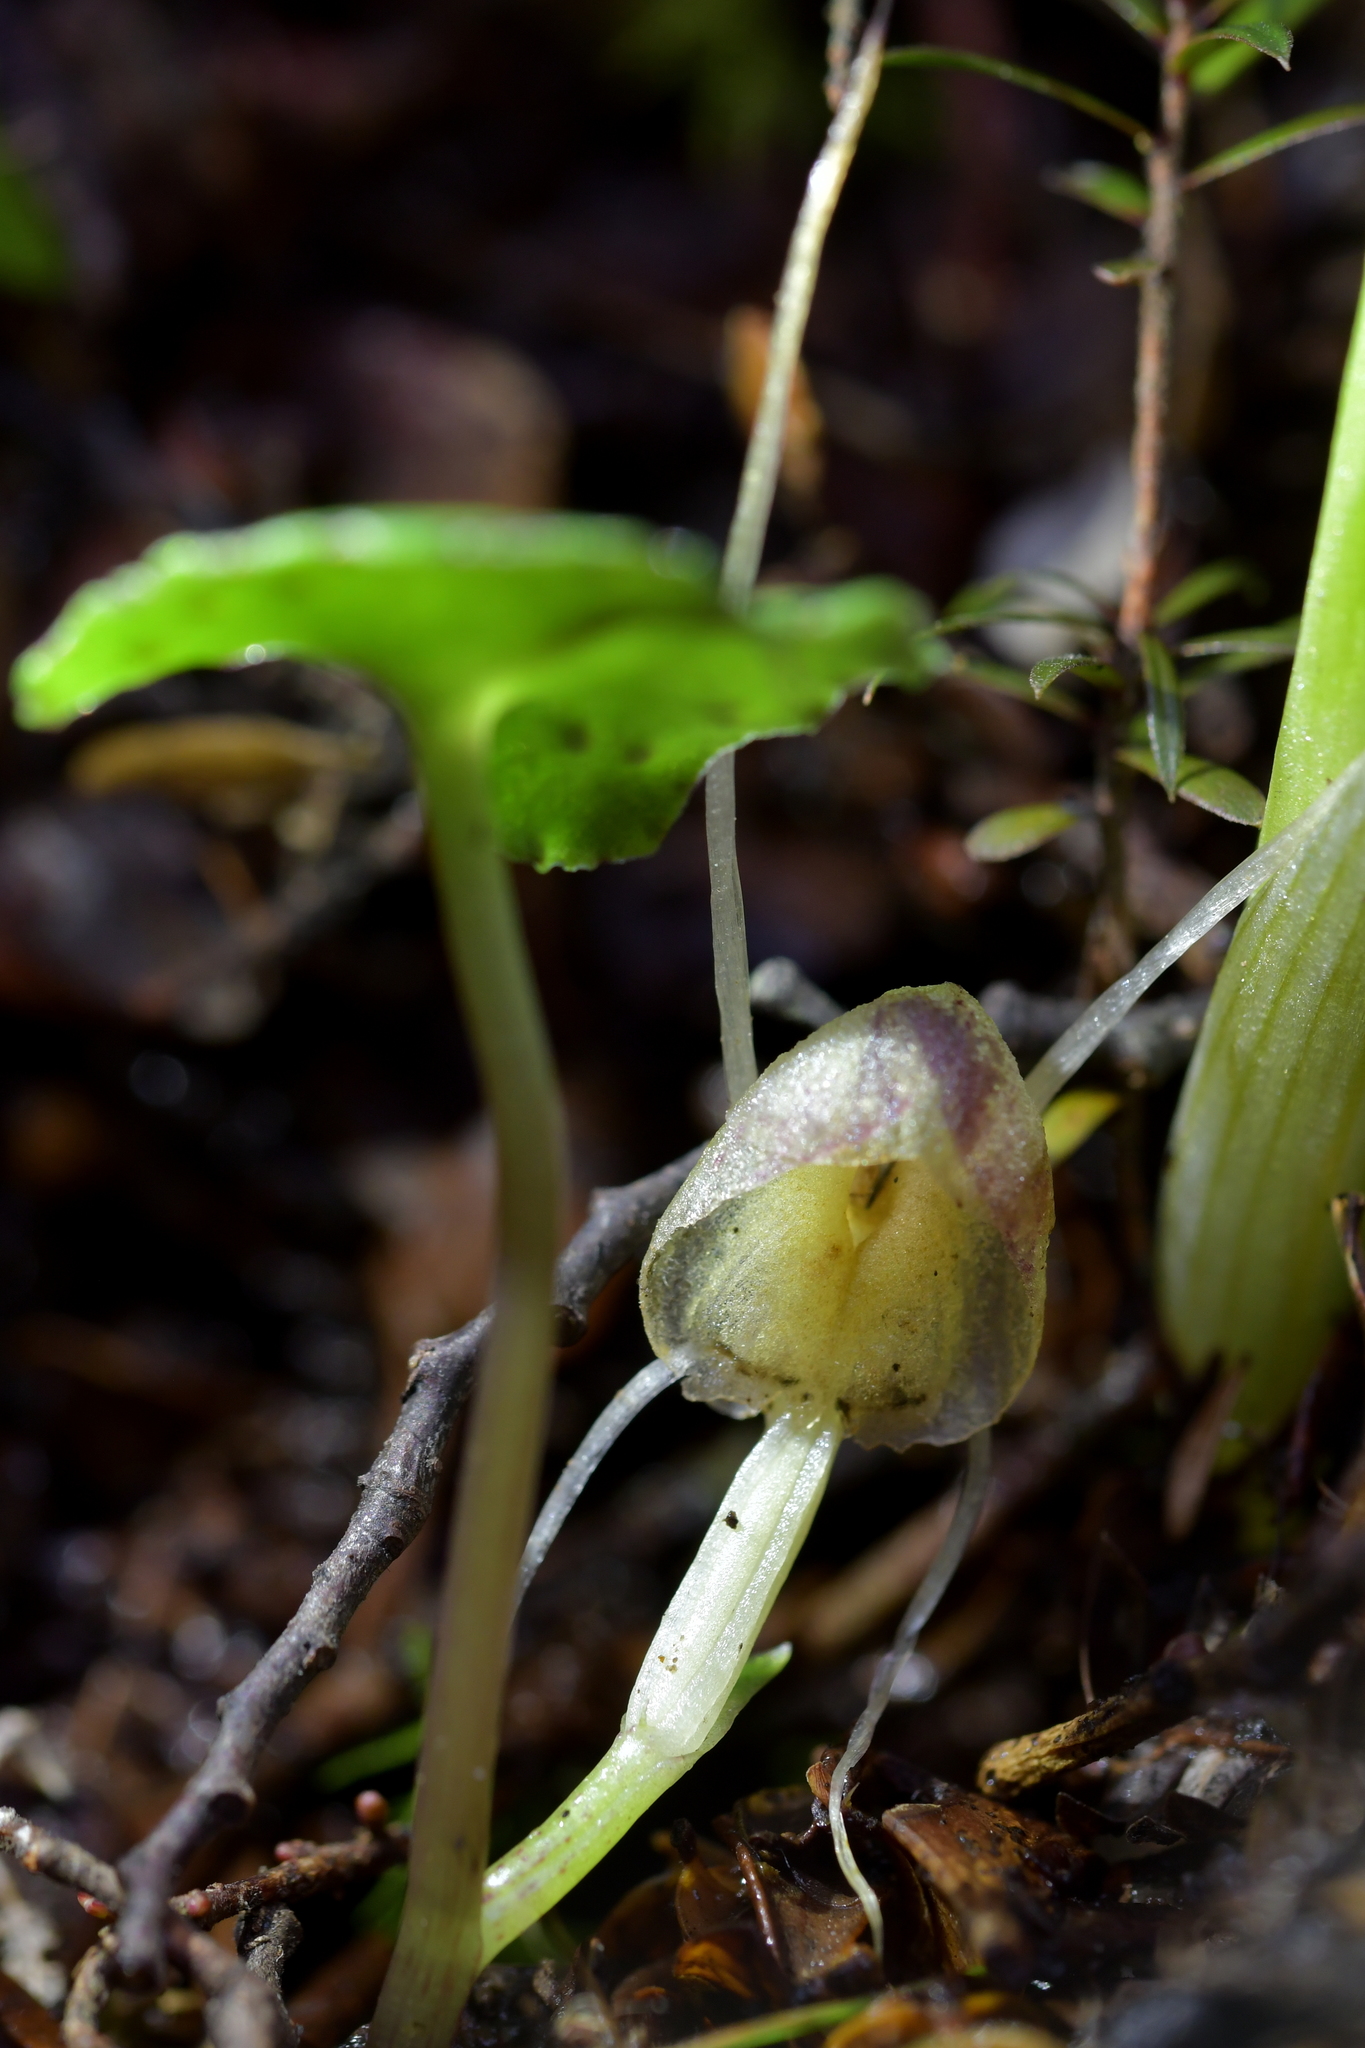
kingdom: Plantae
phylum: Tracheophyta
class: Liliopsida
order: Asparagales
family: Orchidaceae
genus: Corybas
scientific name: Corybas walliae
